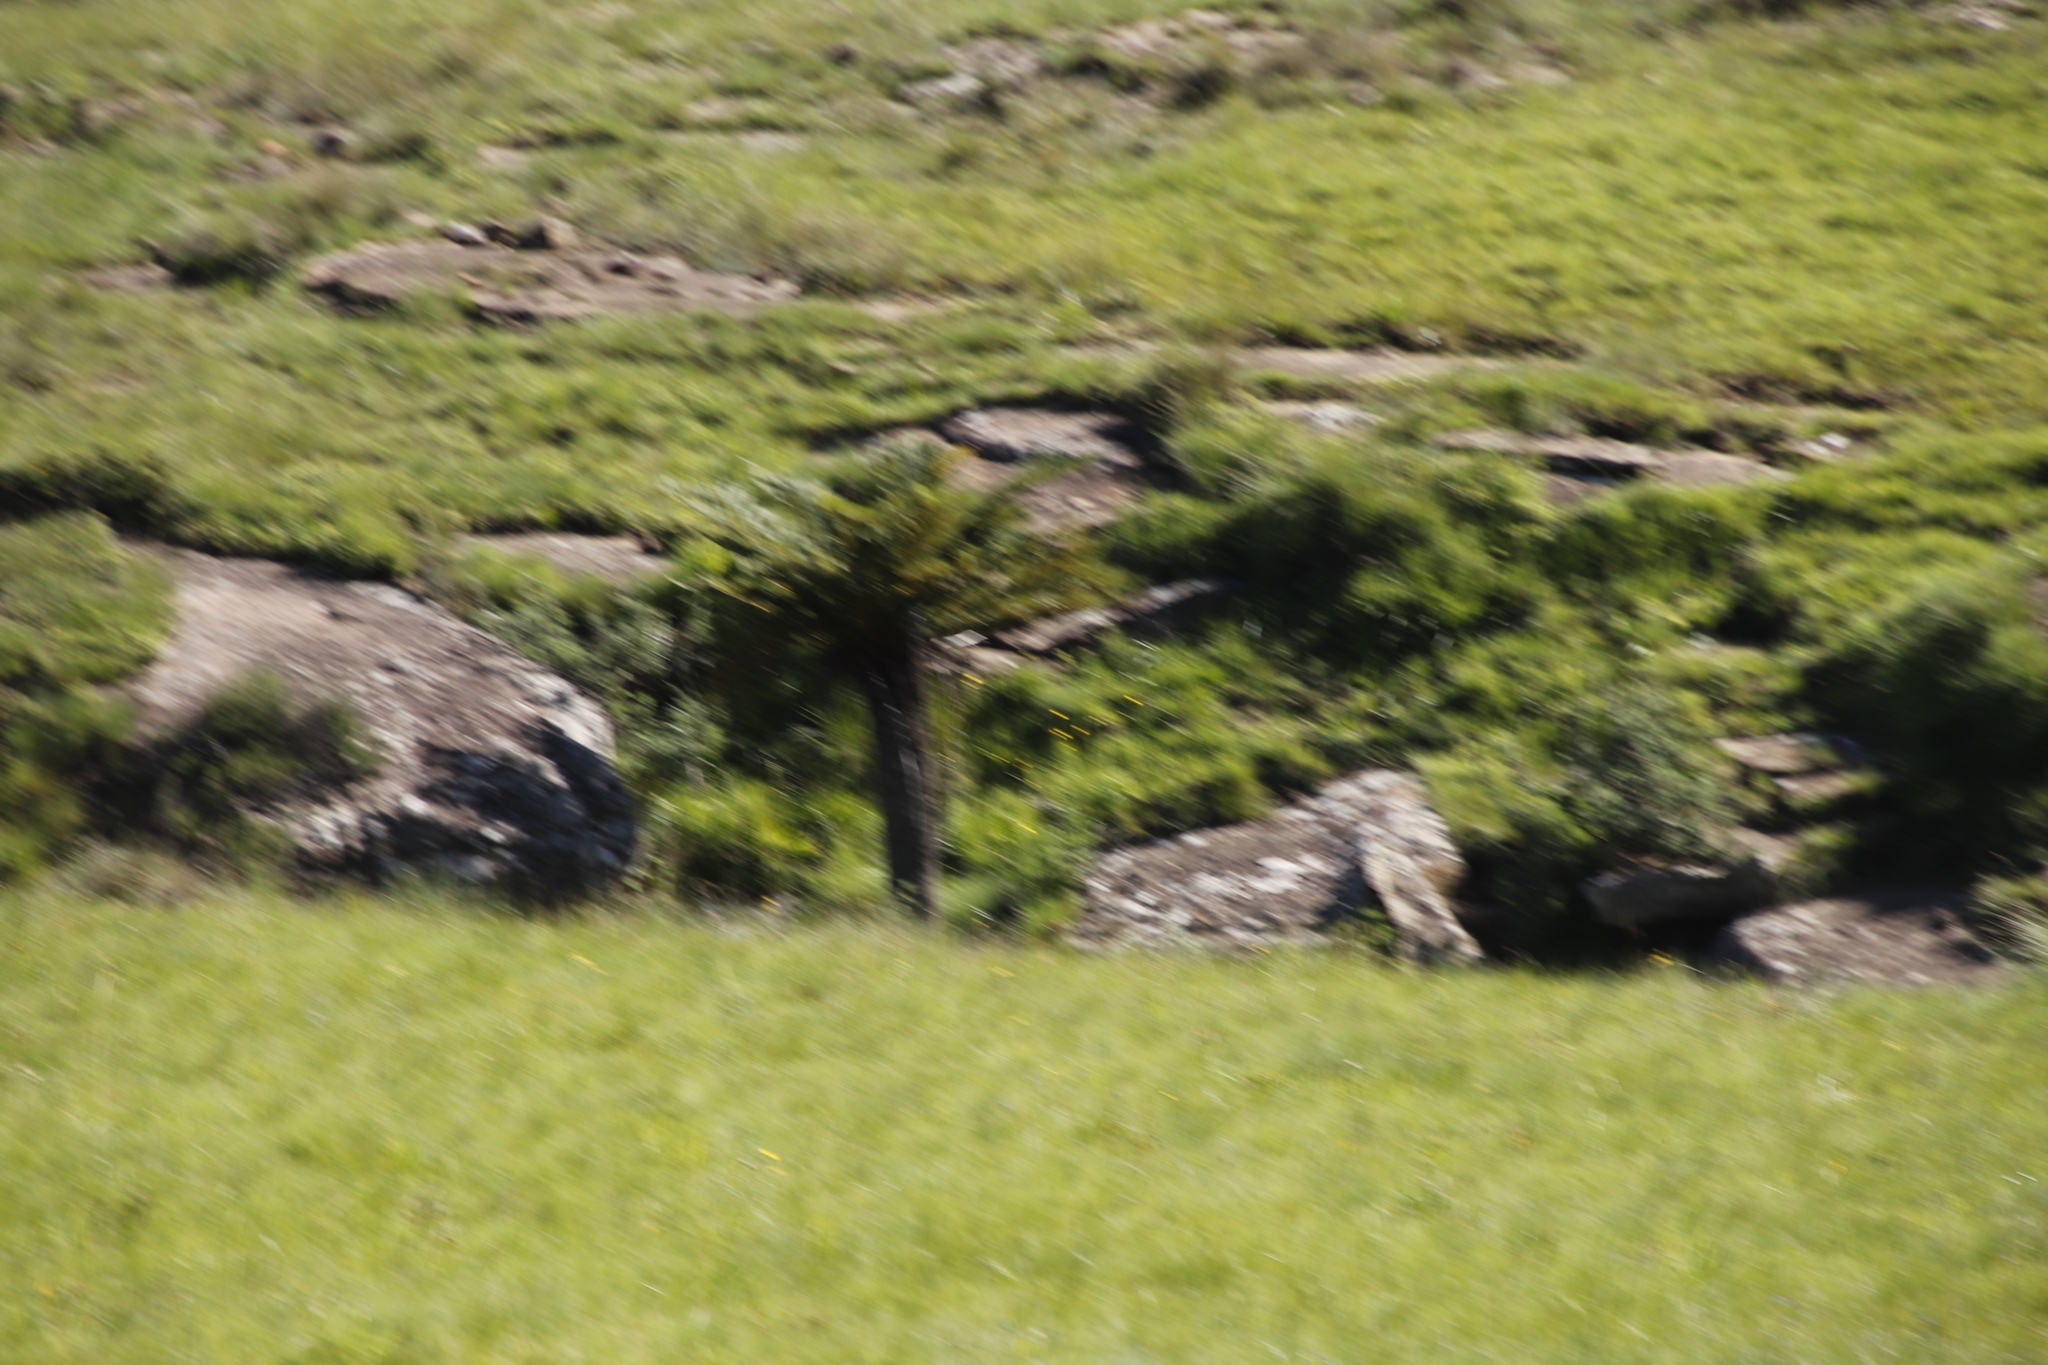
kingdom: Plantae
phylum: Tracheophyta
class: Polypodiopsida
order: Cyatheales
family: Cyatheaceae
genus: Alsophila
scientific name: Alsophila dregei
